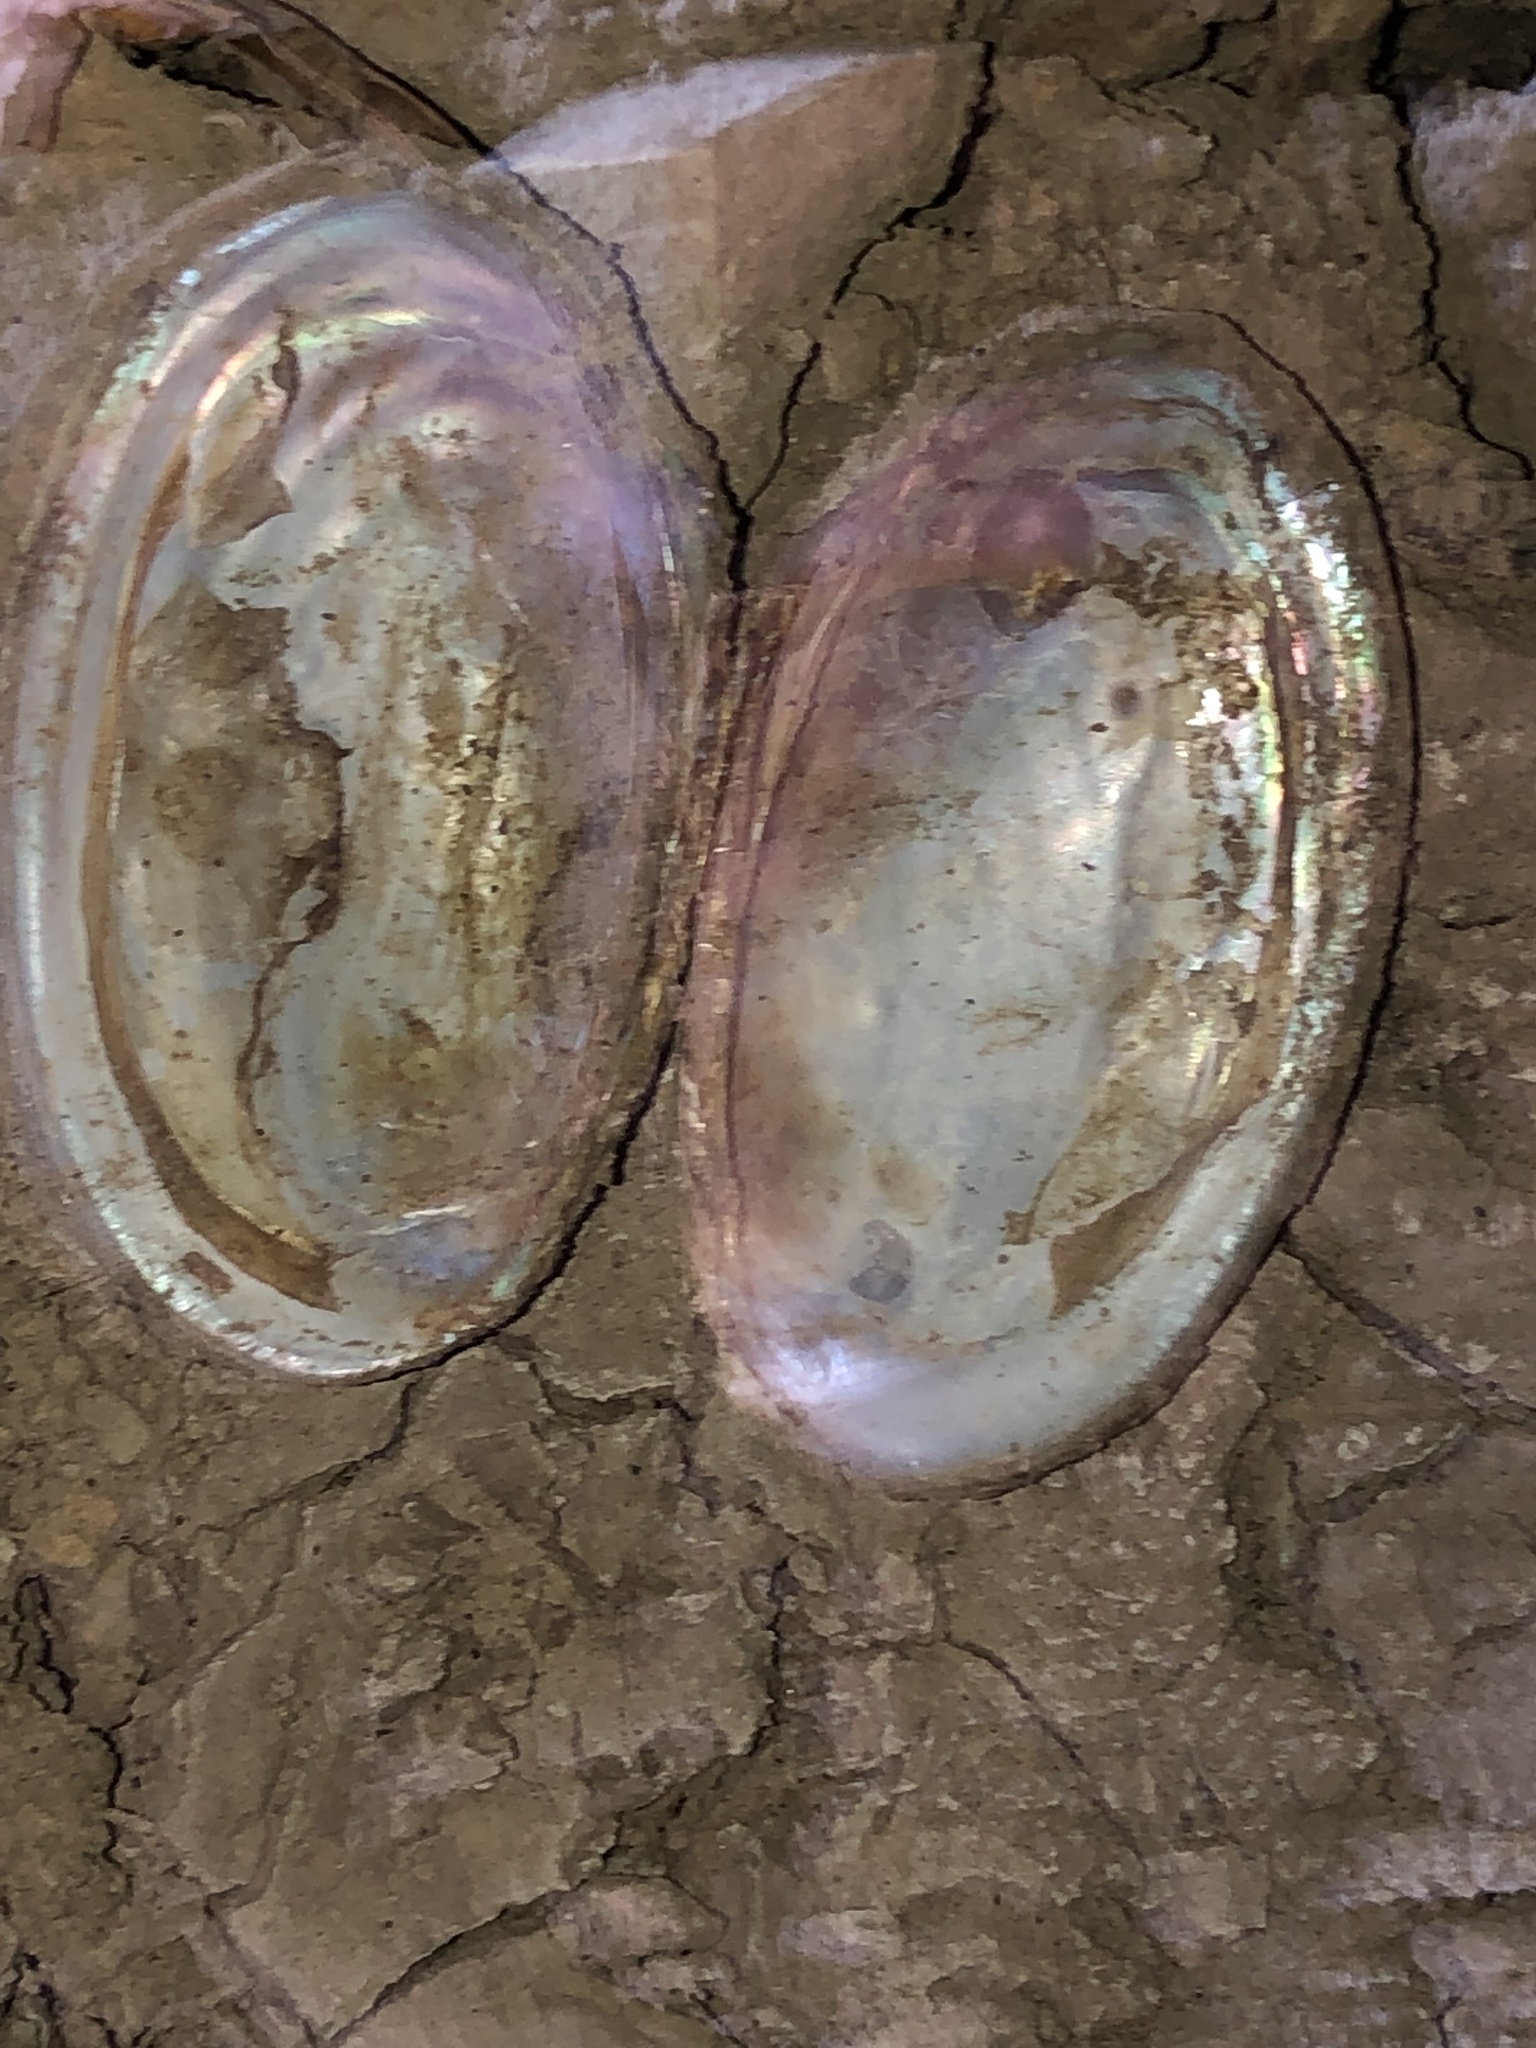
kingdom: Animalia
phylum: Mollusca
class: Bivalvia
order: Unionida
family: Unionidae
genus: Potamilus
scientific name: Potamilus fragilis
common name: Fragile papershell
